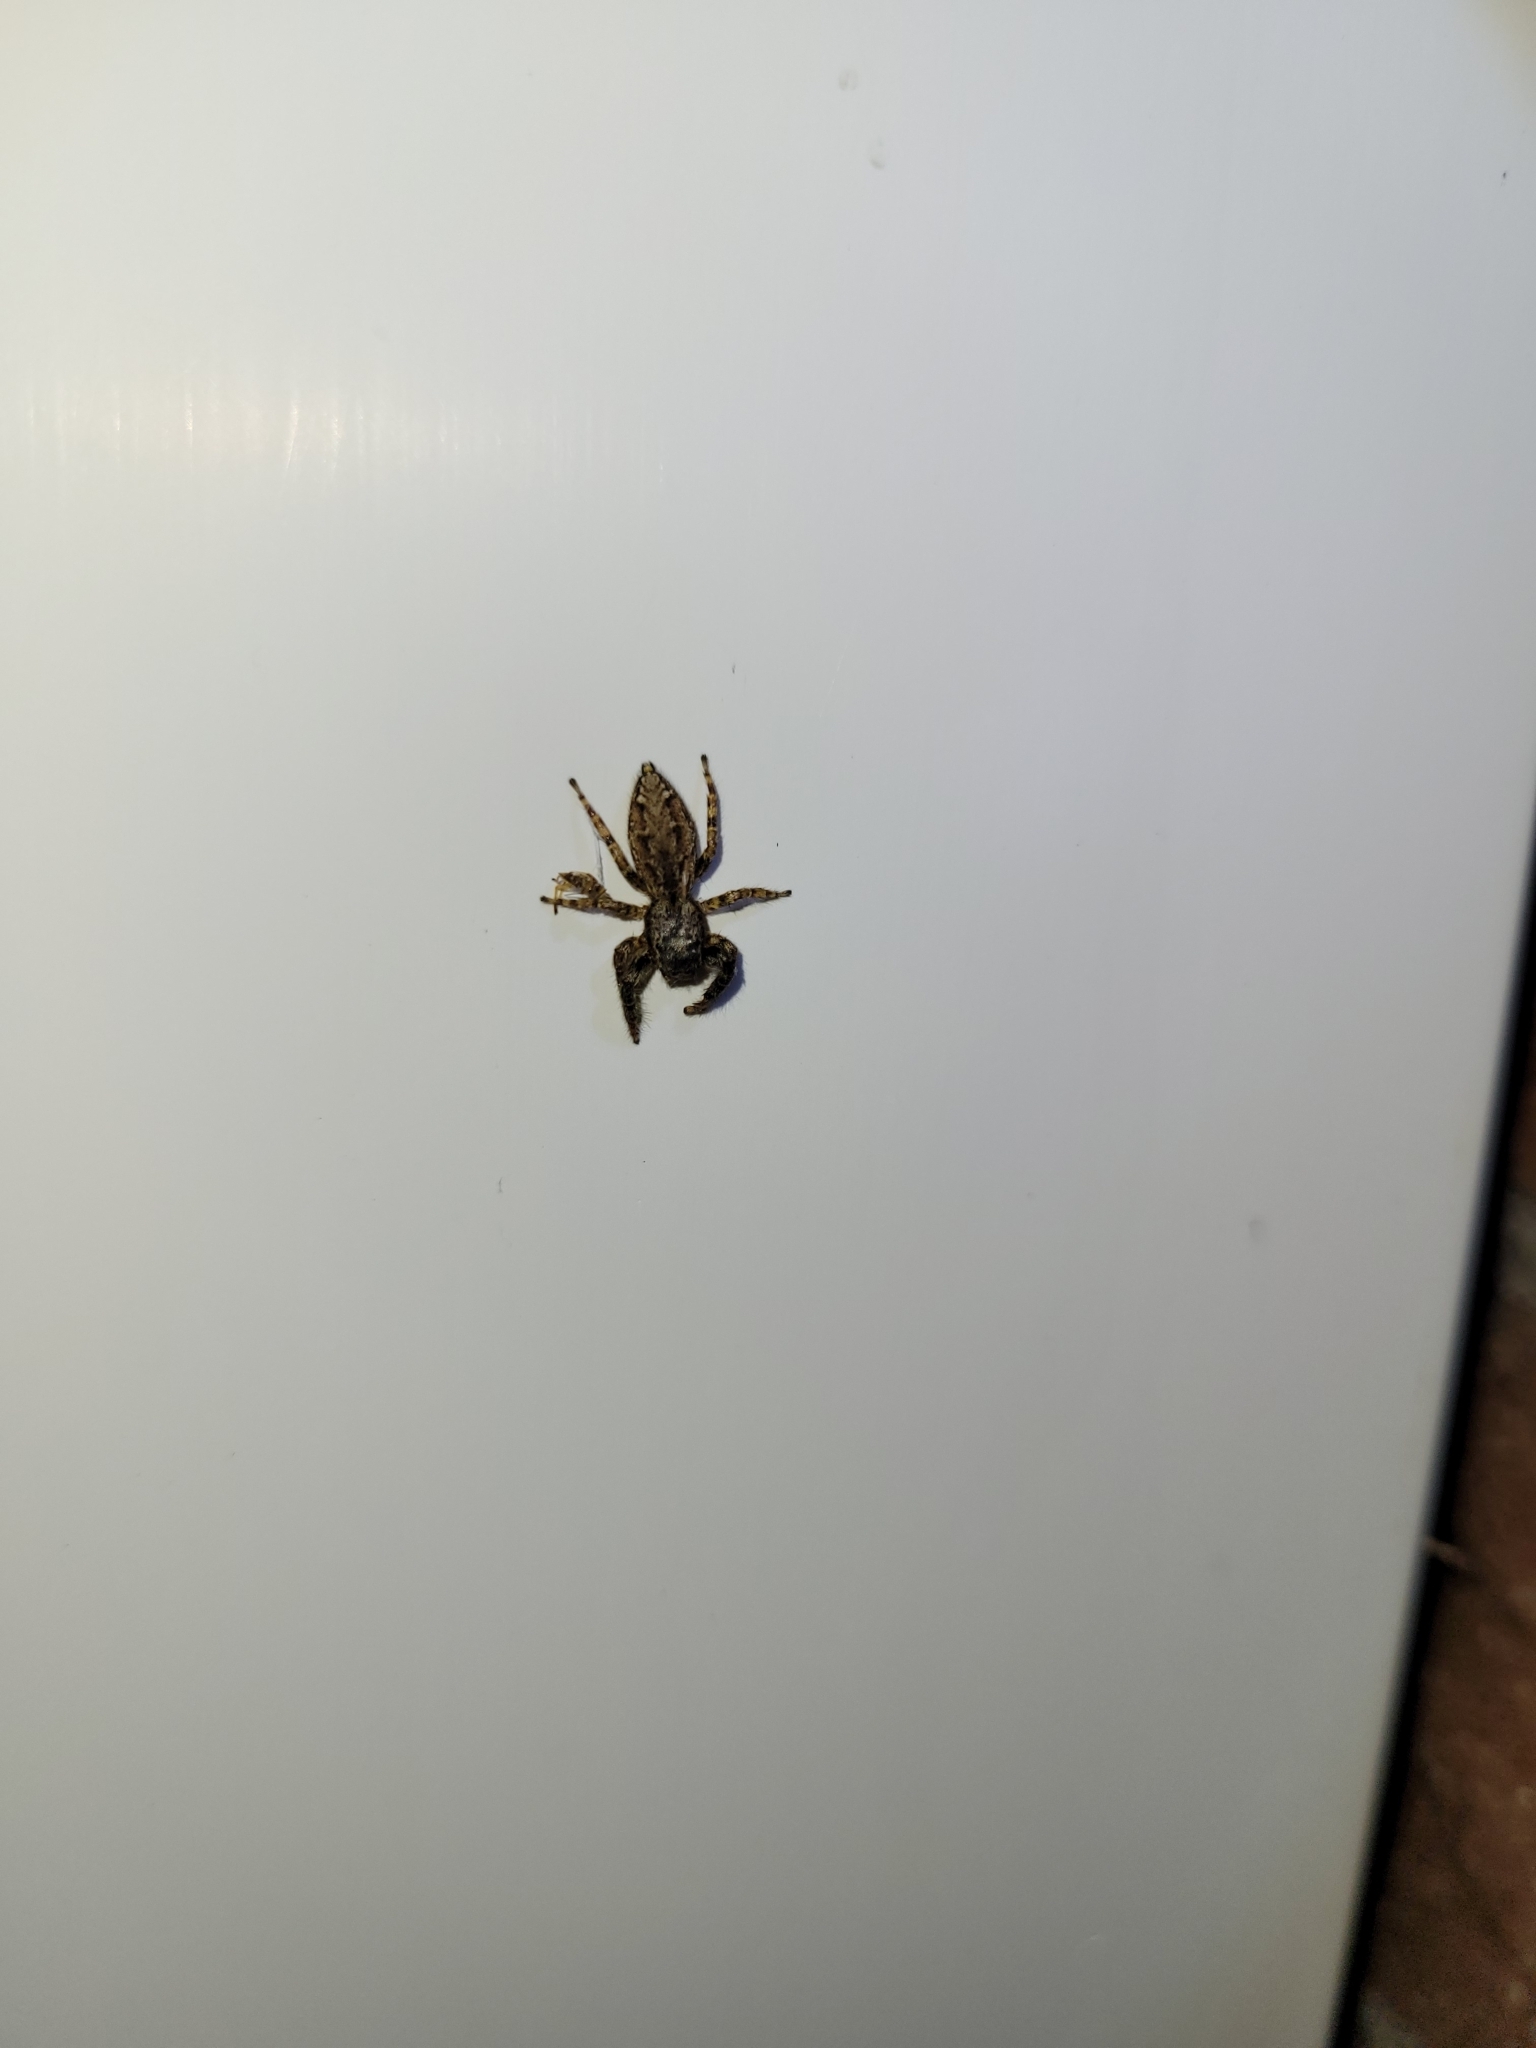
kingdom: Animalia
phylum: Arthropoda
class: Arachnida
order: Araneae
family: Salticidae
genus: Marpissa
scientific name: Marpissa muscosa
